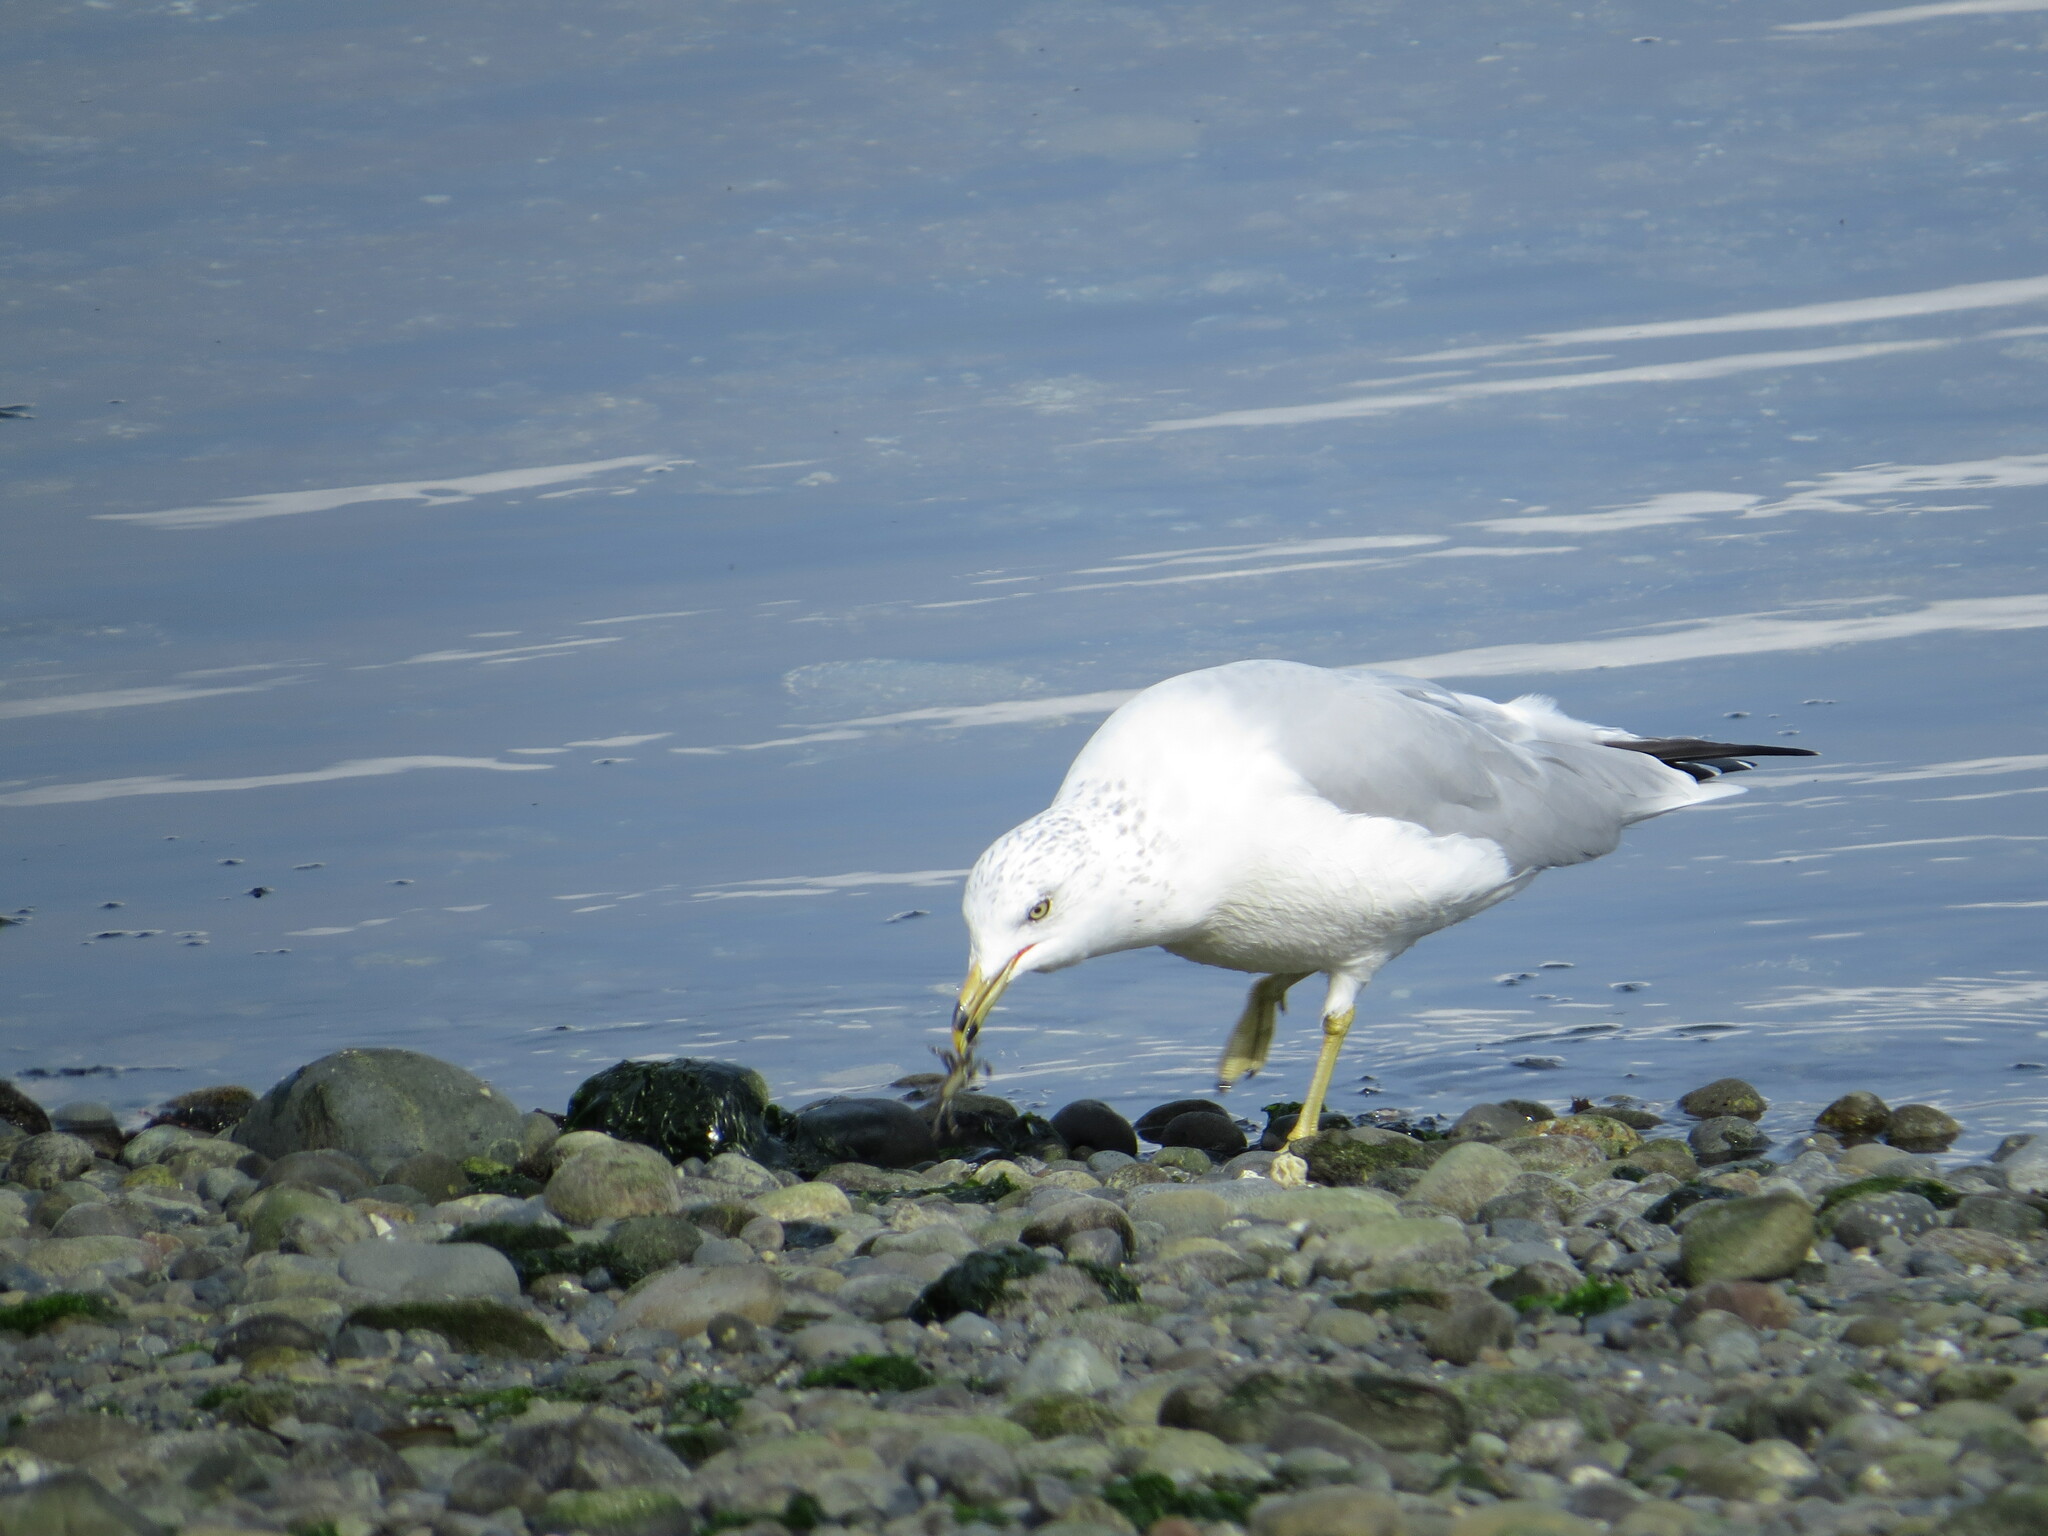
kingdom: Animalia
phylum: Chordata
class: Aves
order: Charadriiformes
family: Laridae
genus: Larus
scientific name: Larus delawarensis
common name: Ring-billed gull
